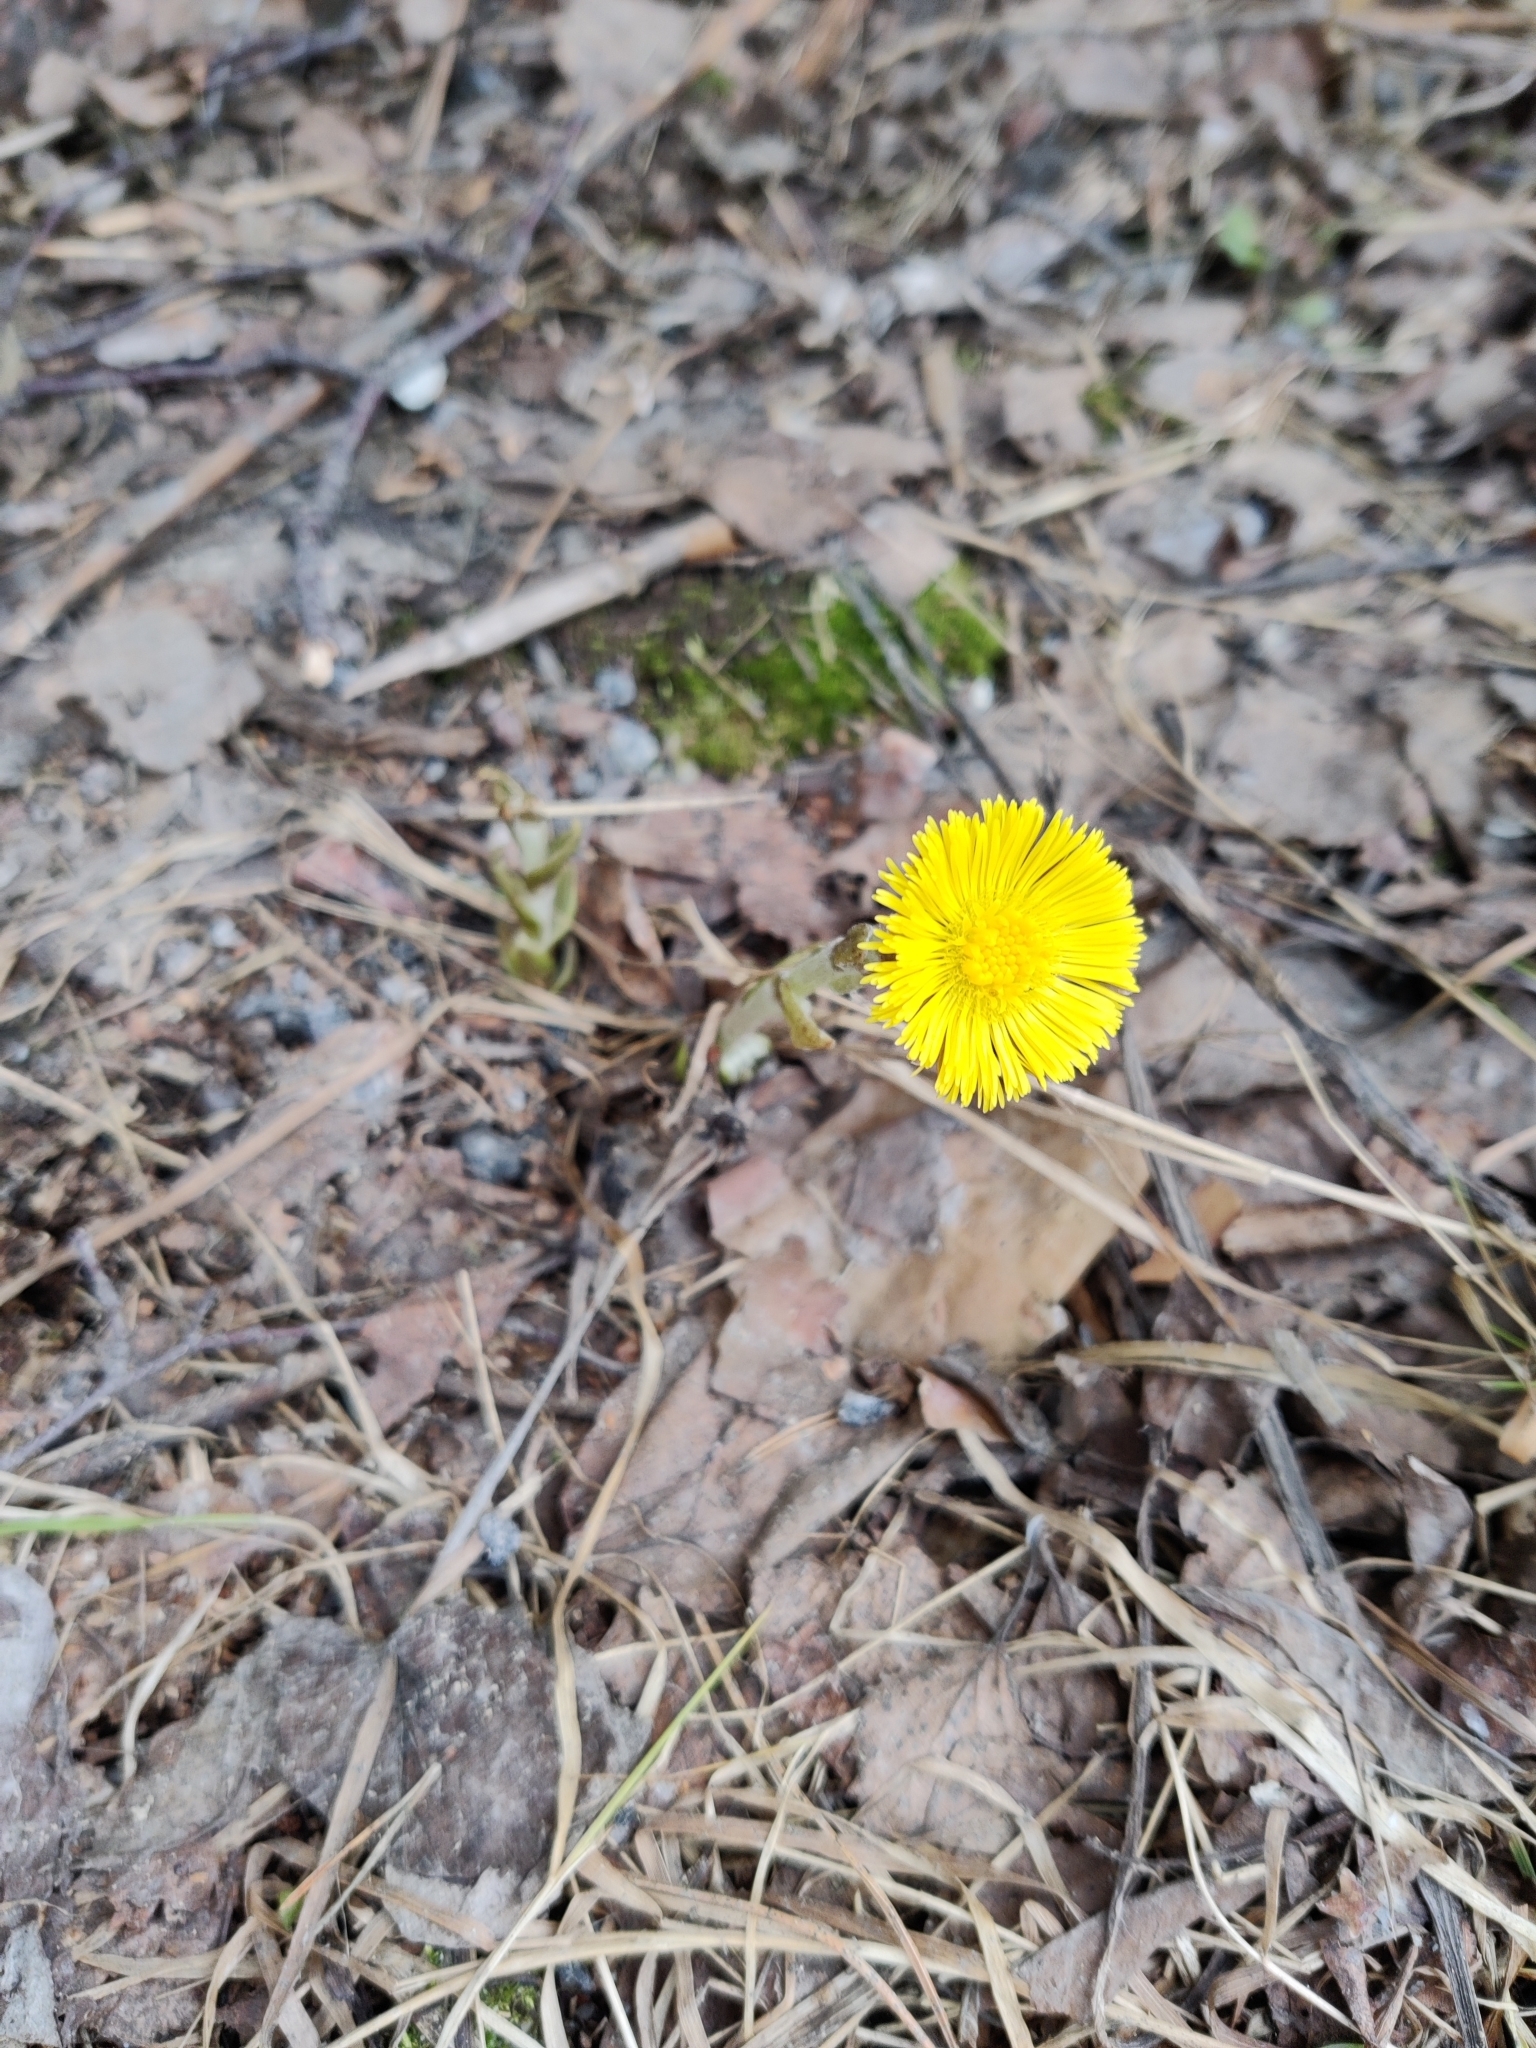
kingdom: Plantae
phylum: Tracheophyta
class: Magnoliopsida
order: Asterales
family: Asteraceae
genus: Tussilago
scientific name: Tussilago farfara
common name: Coltsfoot
